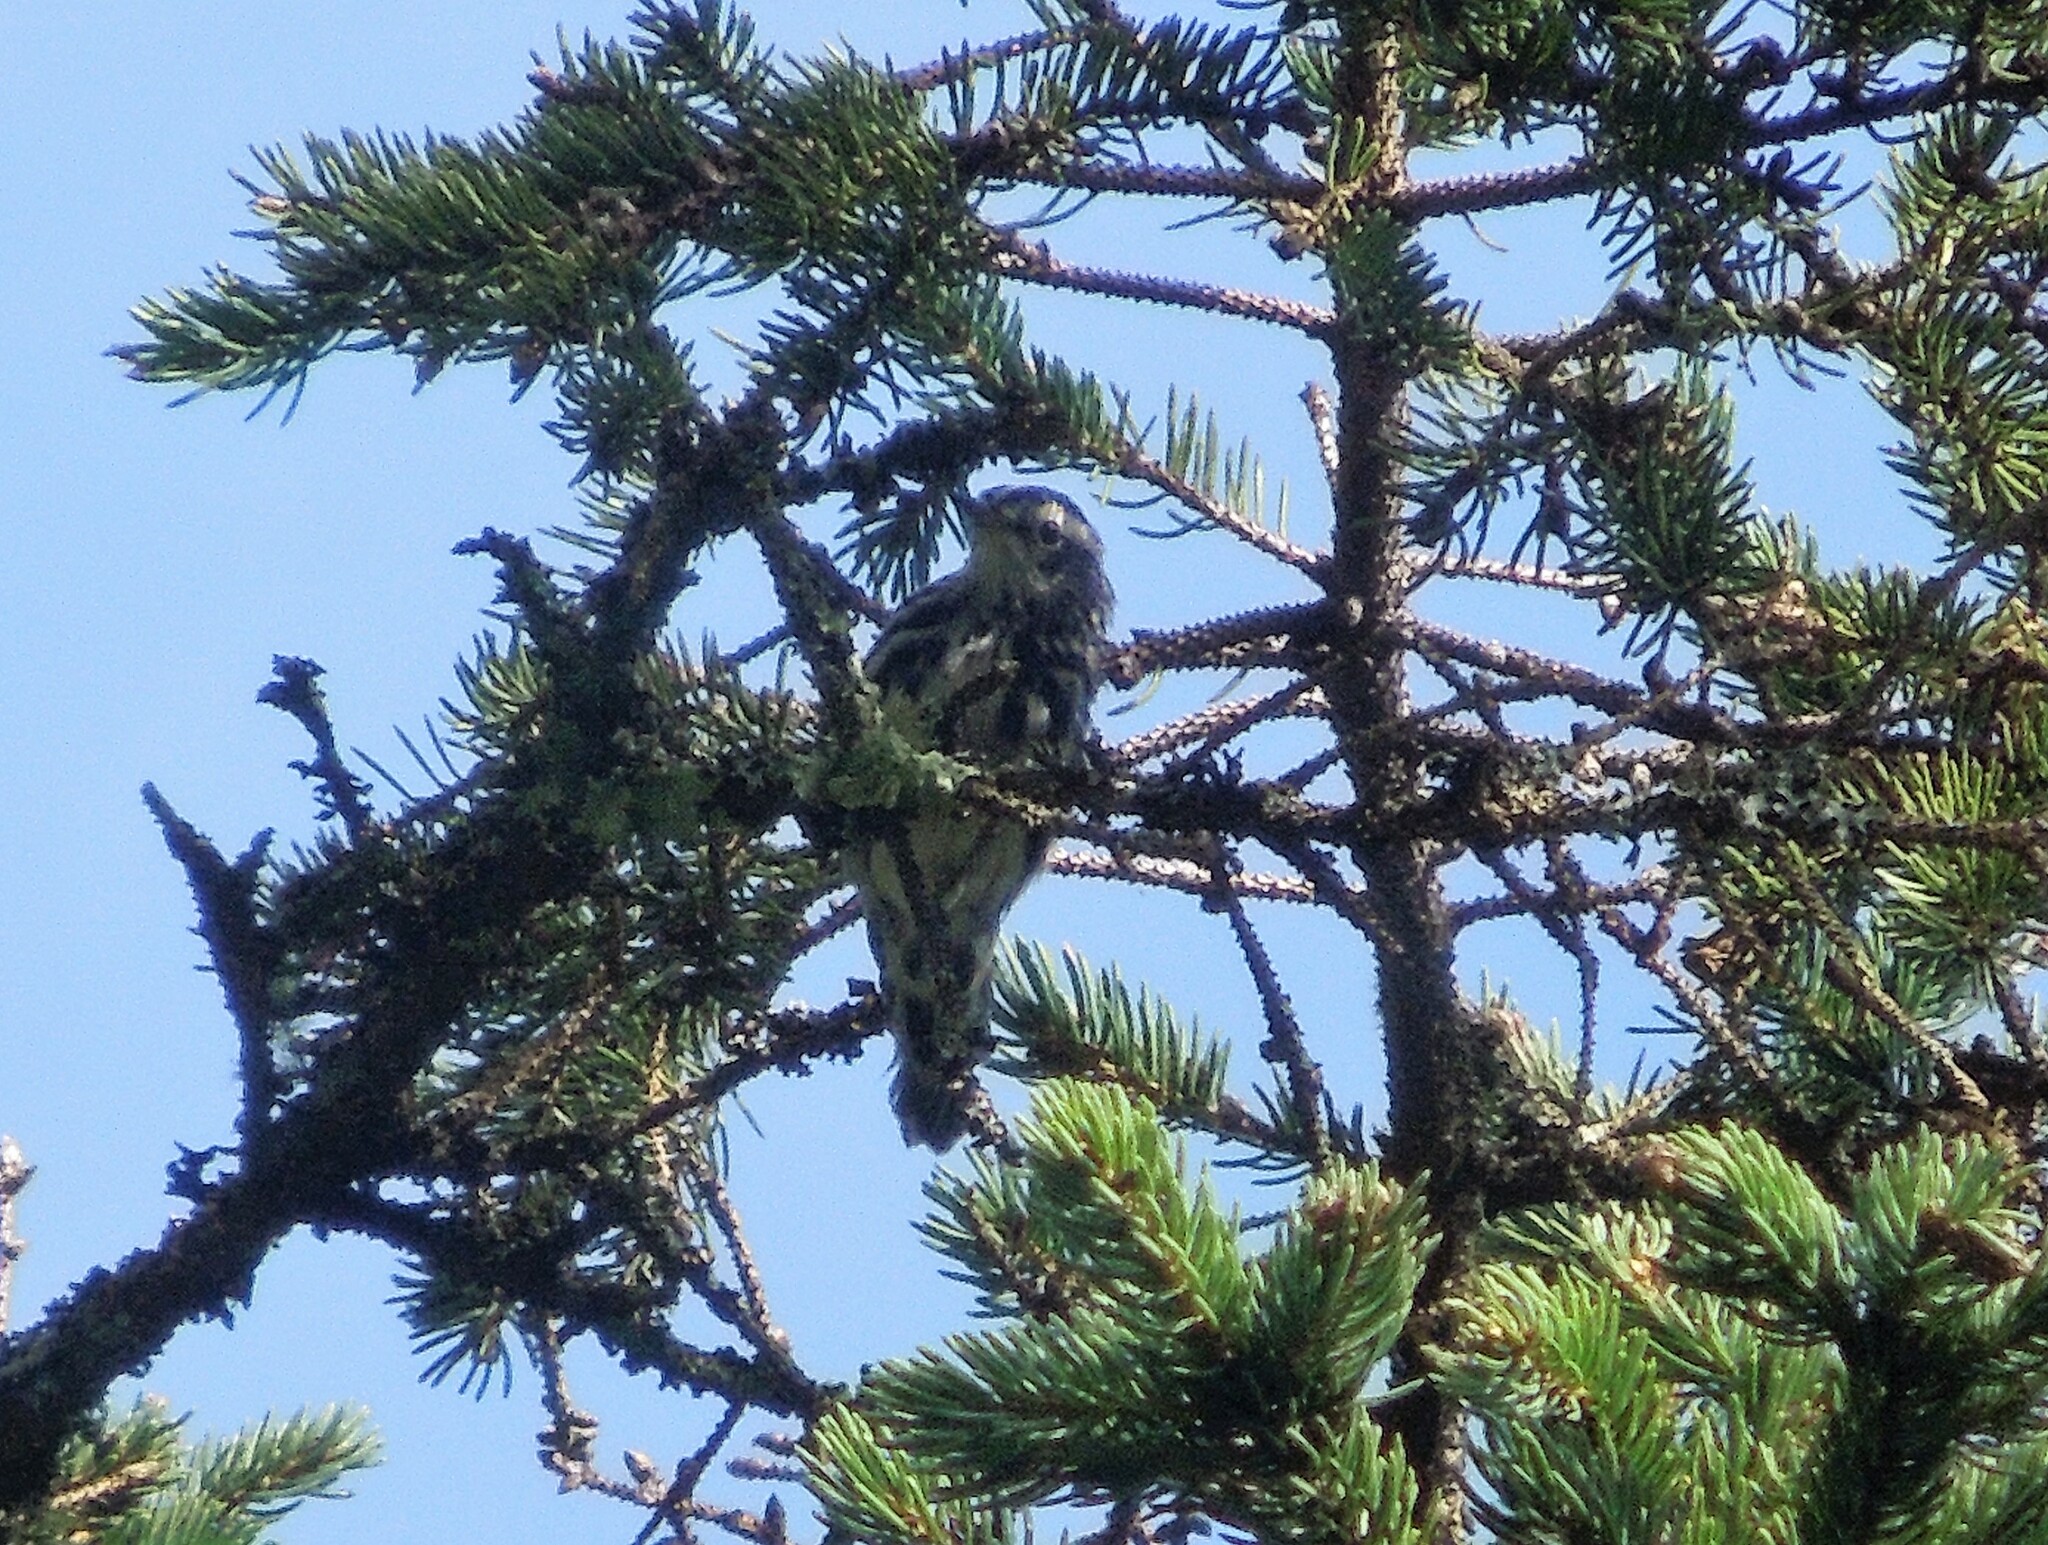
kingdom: Animalia
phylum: Chordata
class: Aves
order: Passeriformes
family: Parulidae
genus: Mniotilta
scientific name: Mniotilta varia
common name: Black-and-white warbler
